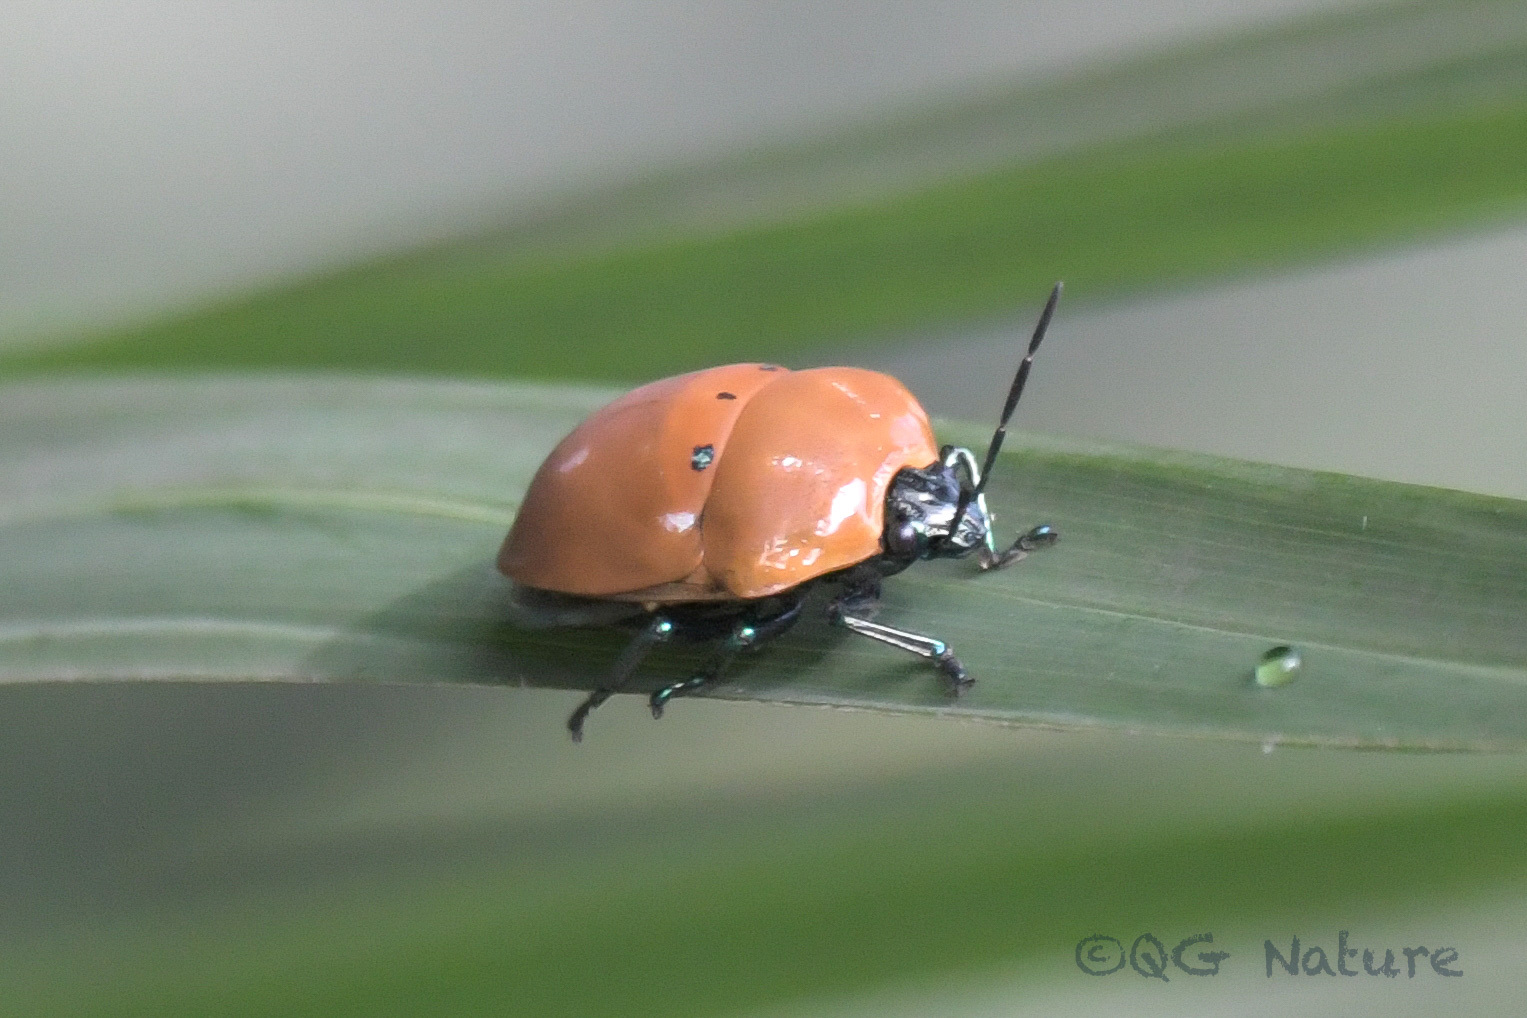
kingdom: Animalia
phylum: Arthropoda
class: Insecta
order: Hemiptera
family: Scutelleridae
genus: Poecilocoris
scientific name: Poecilocoris druraei
